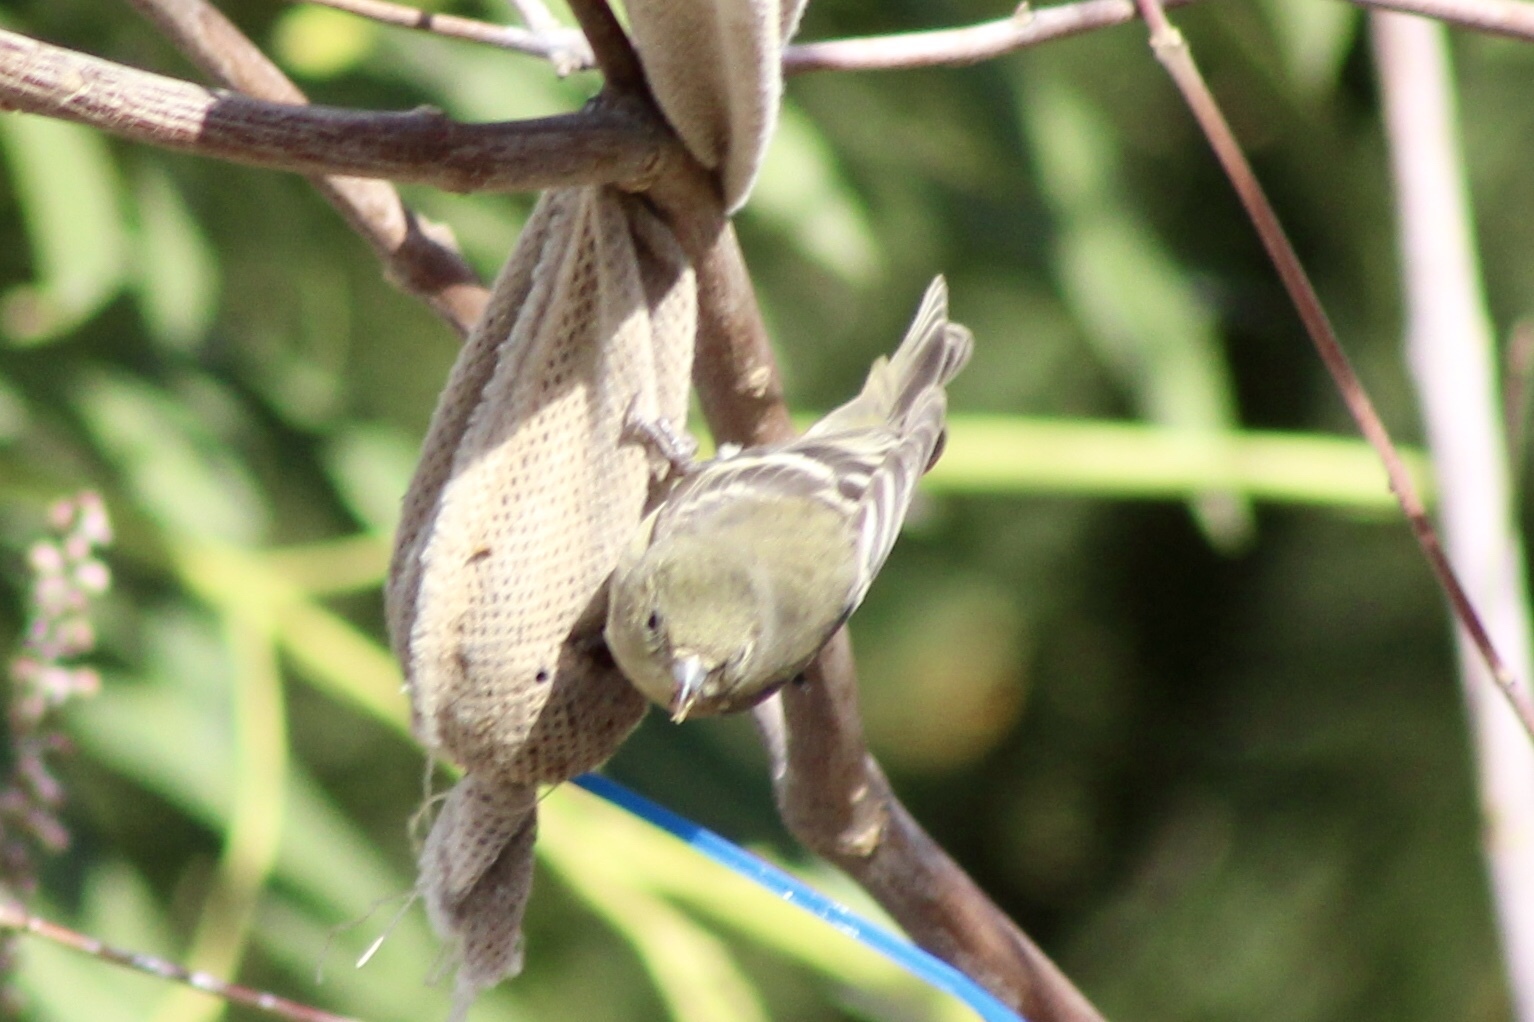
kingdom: Animalia
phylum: Chordata
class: Aves
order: Passeriformes
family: Fringillidae
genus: Spinus
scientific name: Spinus psaltria
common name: Lesser goldfinch
